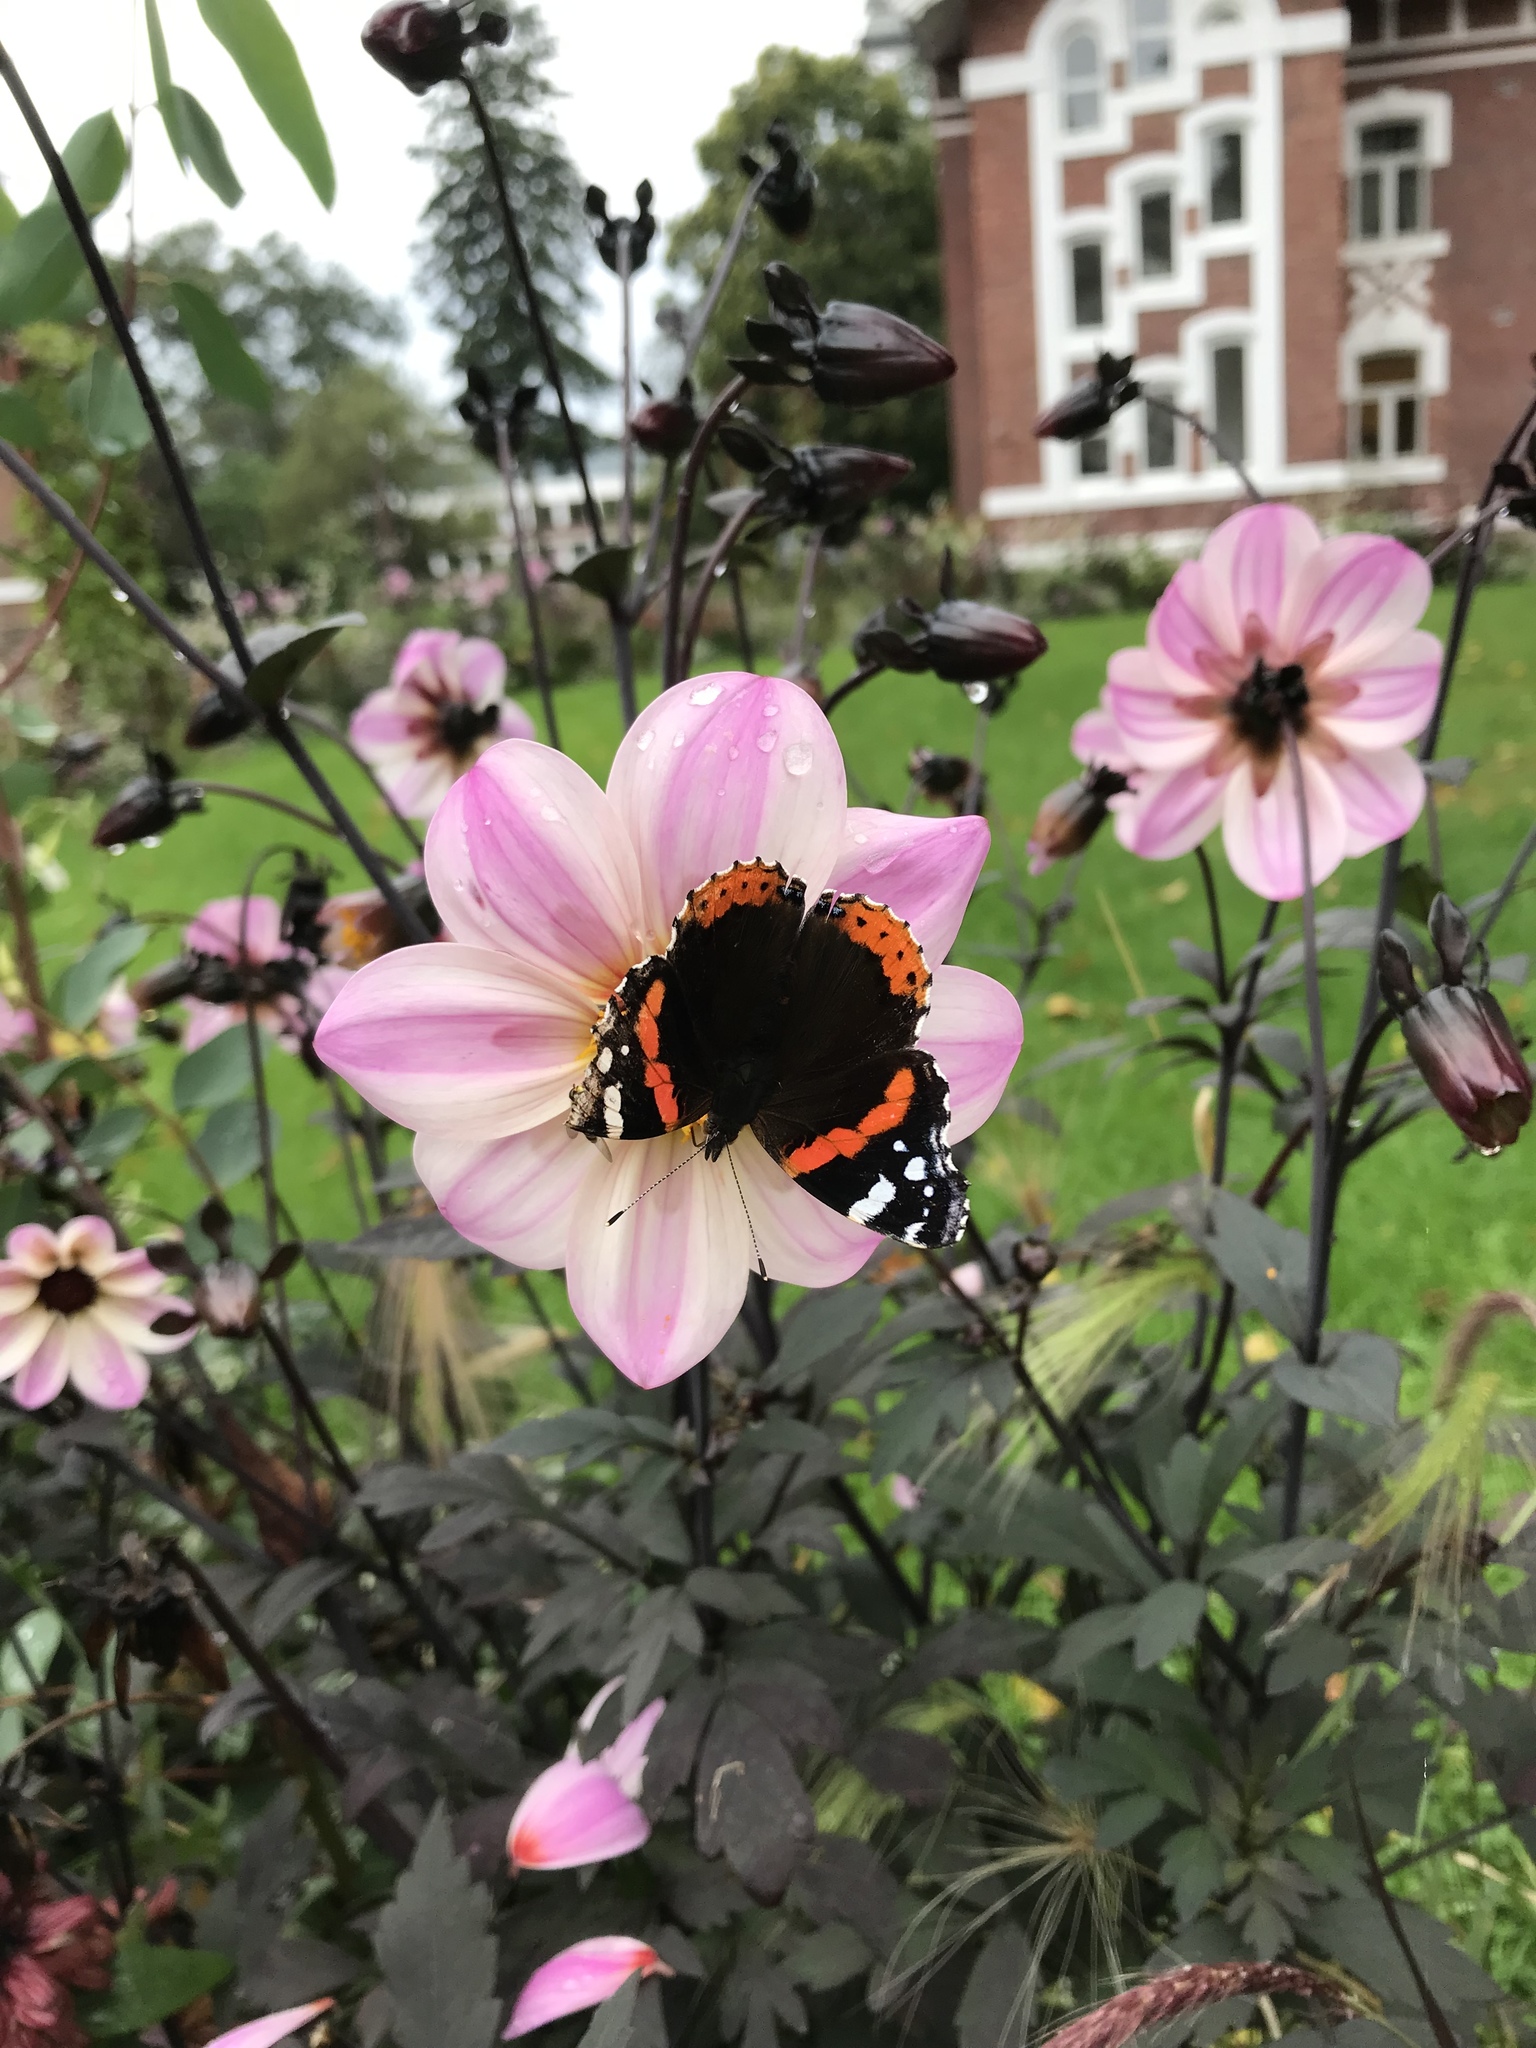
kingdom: Animalia
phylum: Arthropoda
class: Insecta
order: Lepidoptera
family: Nymphalidae
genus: Vanessa
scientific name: Vanessa atalanta
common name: Red admiral
